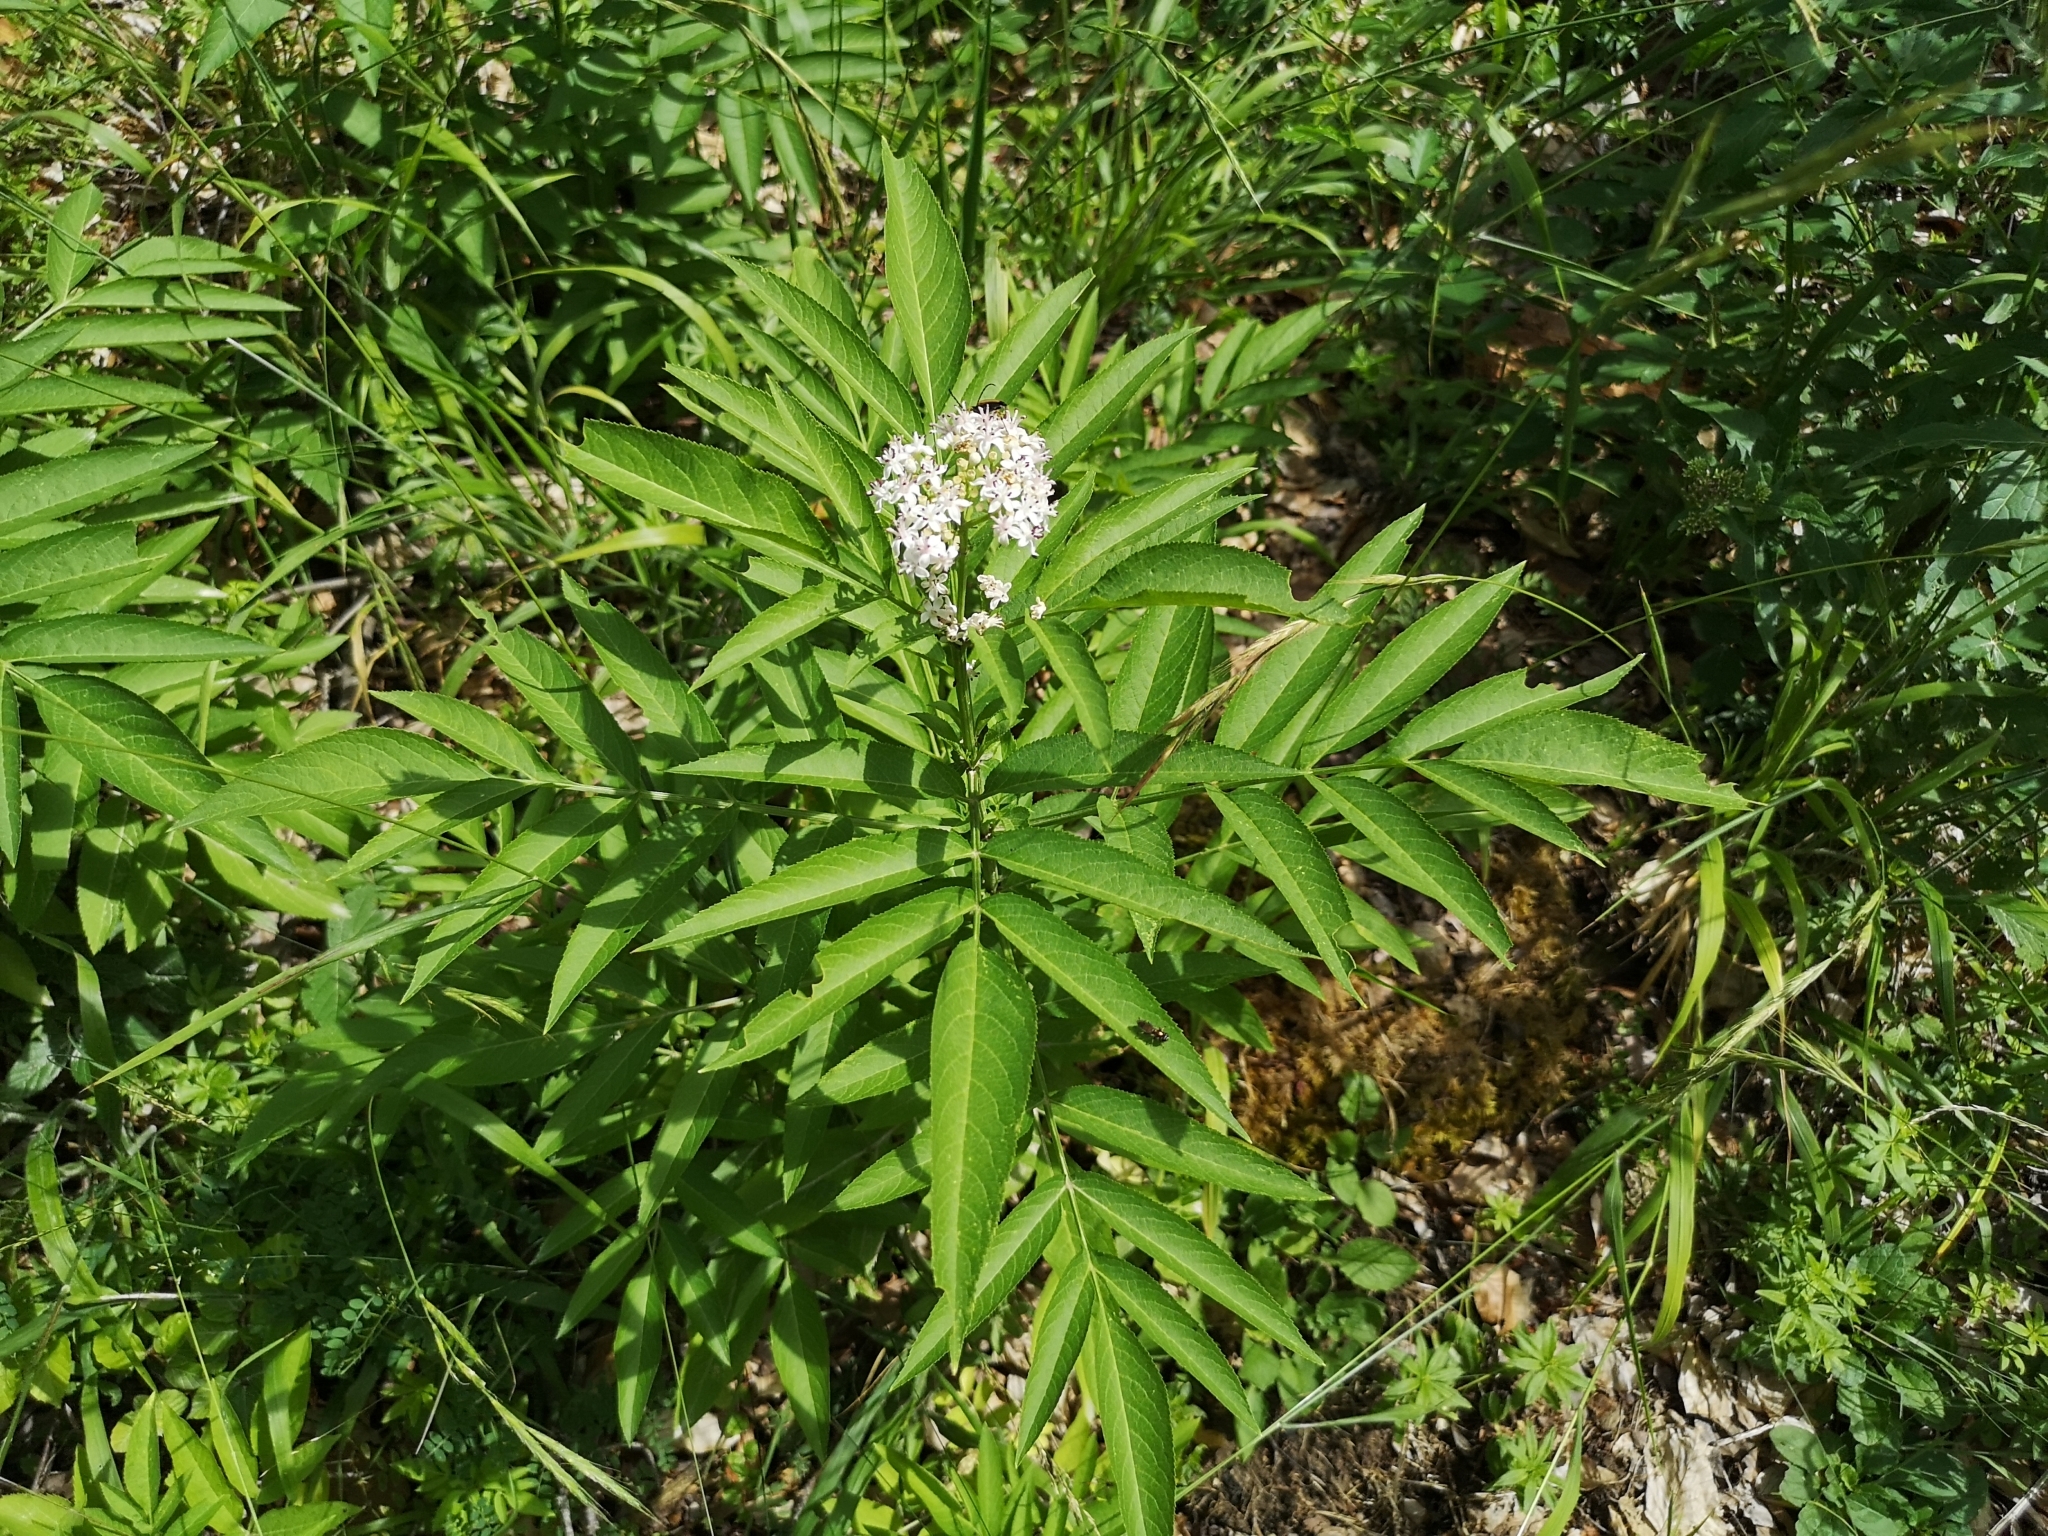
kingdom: Plantae
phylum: Tracheophyta
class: Magnoliopsida
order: Dipsacales
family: Viburnaceae
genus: Sambucus
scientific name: Sambucus ebulus
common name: Dwarf elder
